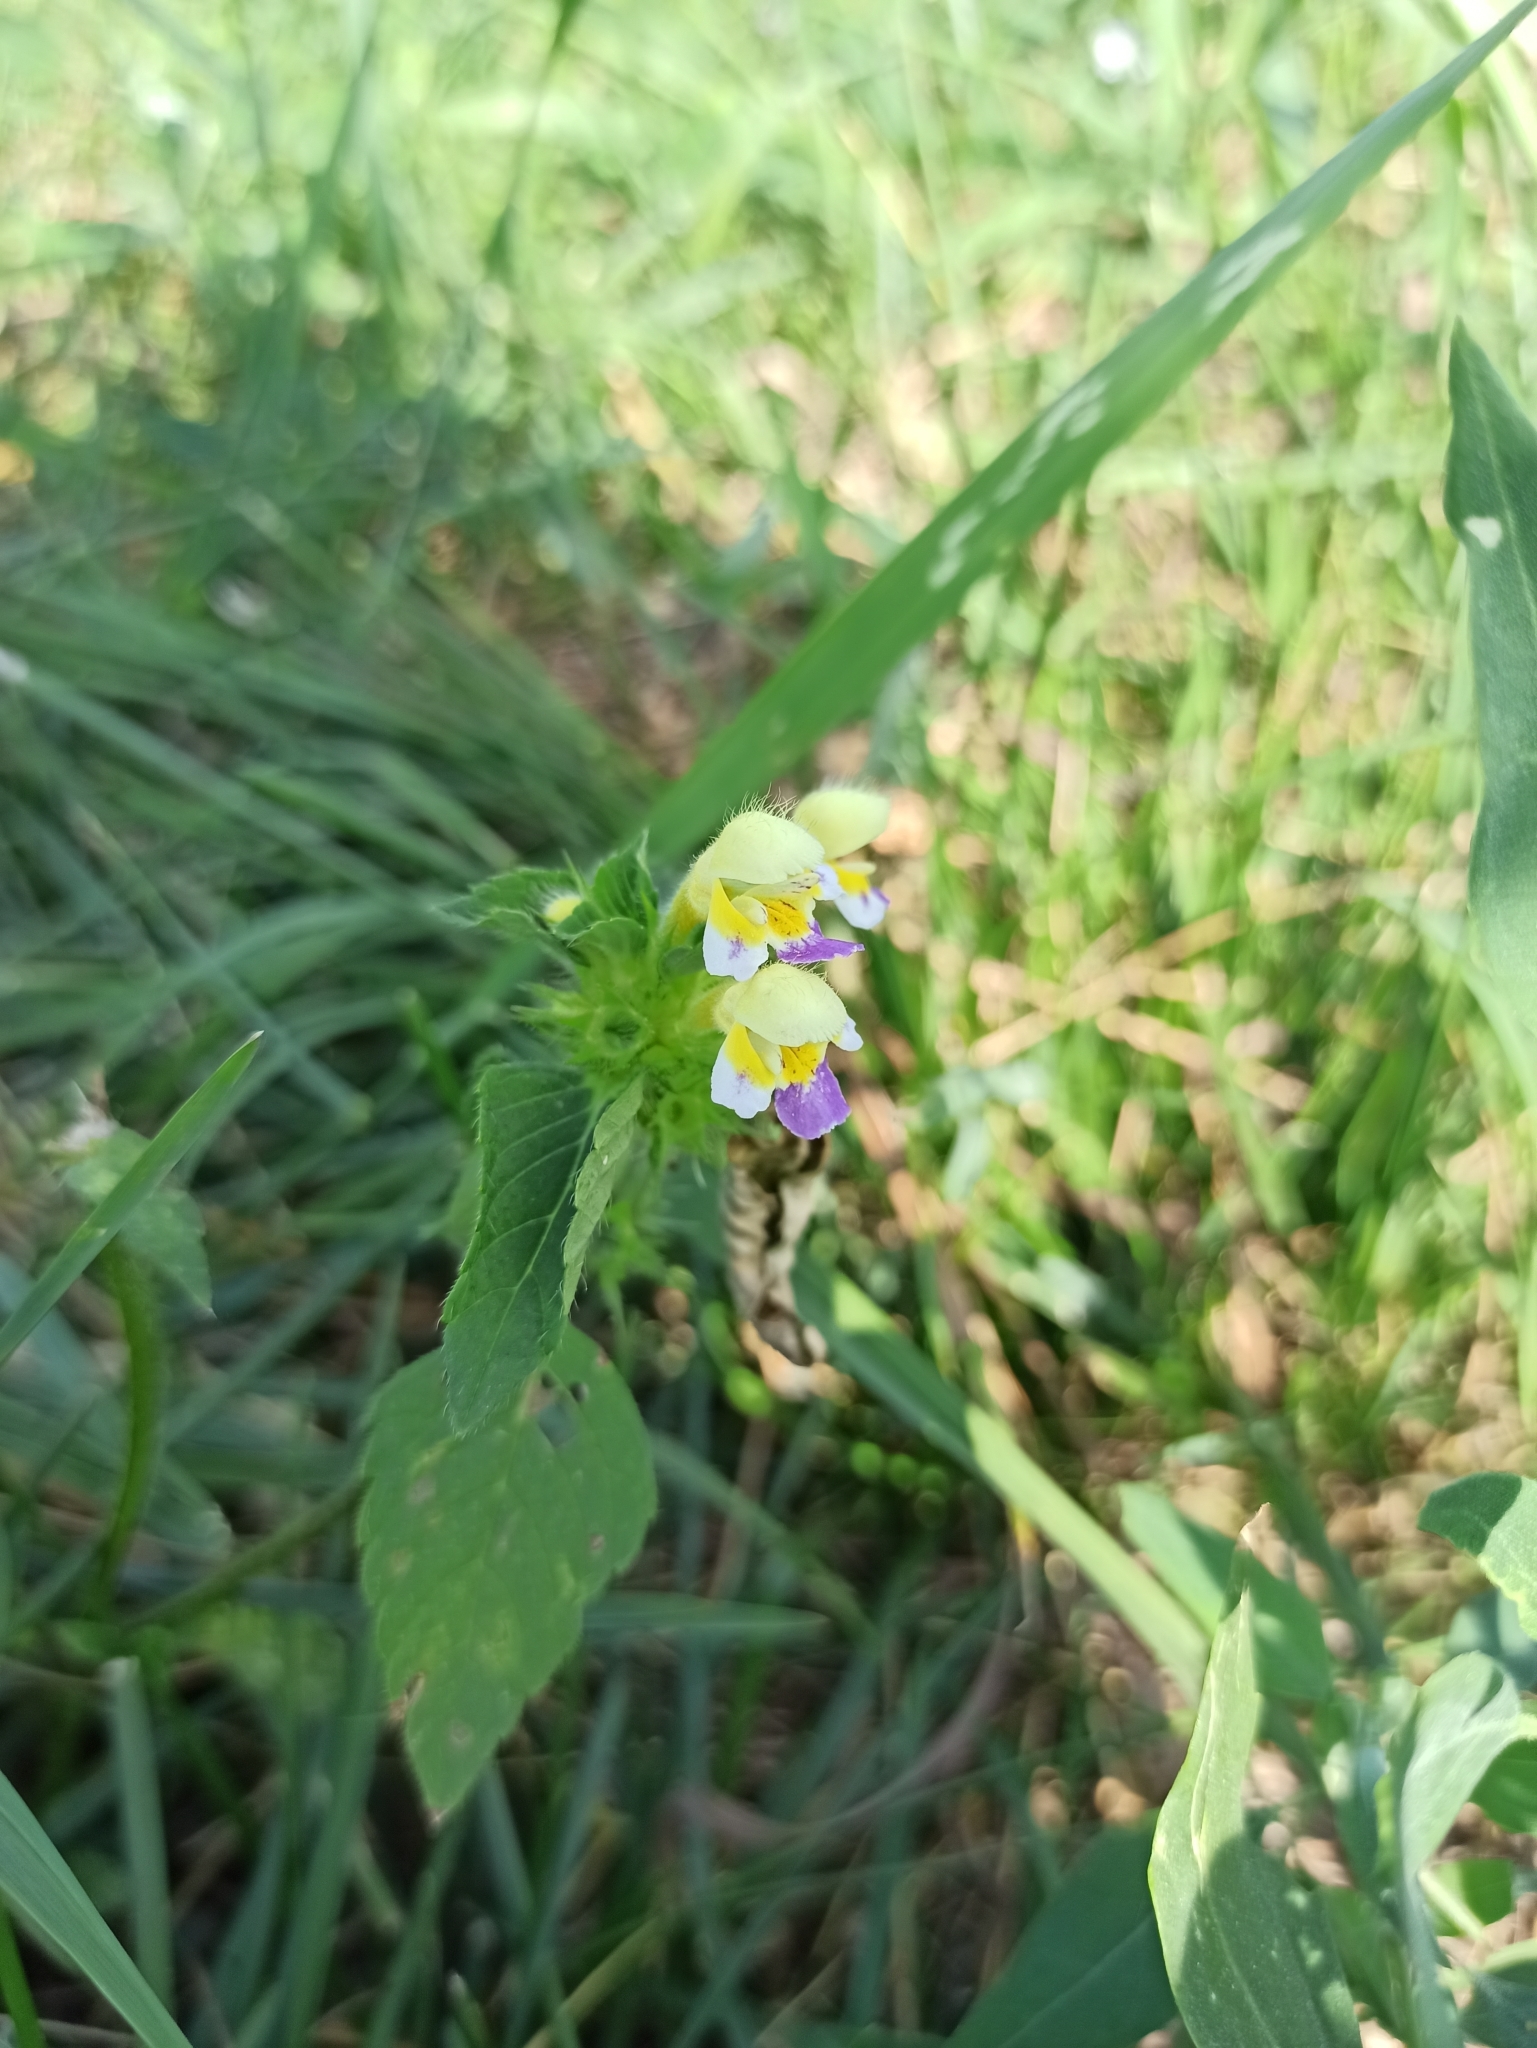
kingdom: Plantae
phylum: Tracheophyta
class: Magnoliopsida
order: Lamiales
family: Lamiaceae
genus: Galeopsis
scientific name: Galeopsis speciosa
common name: Large-flowered hemp-nettle
